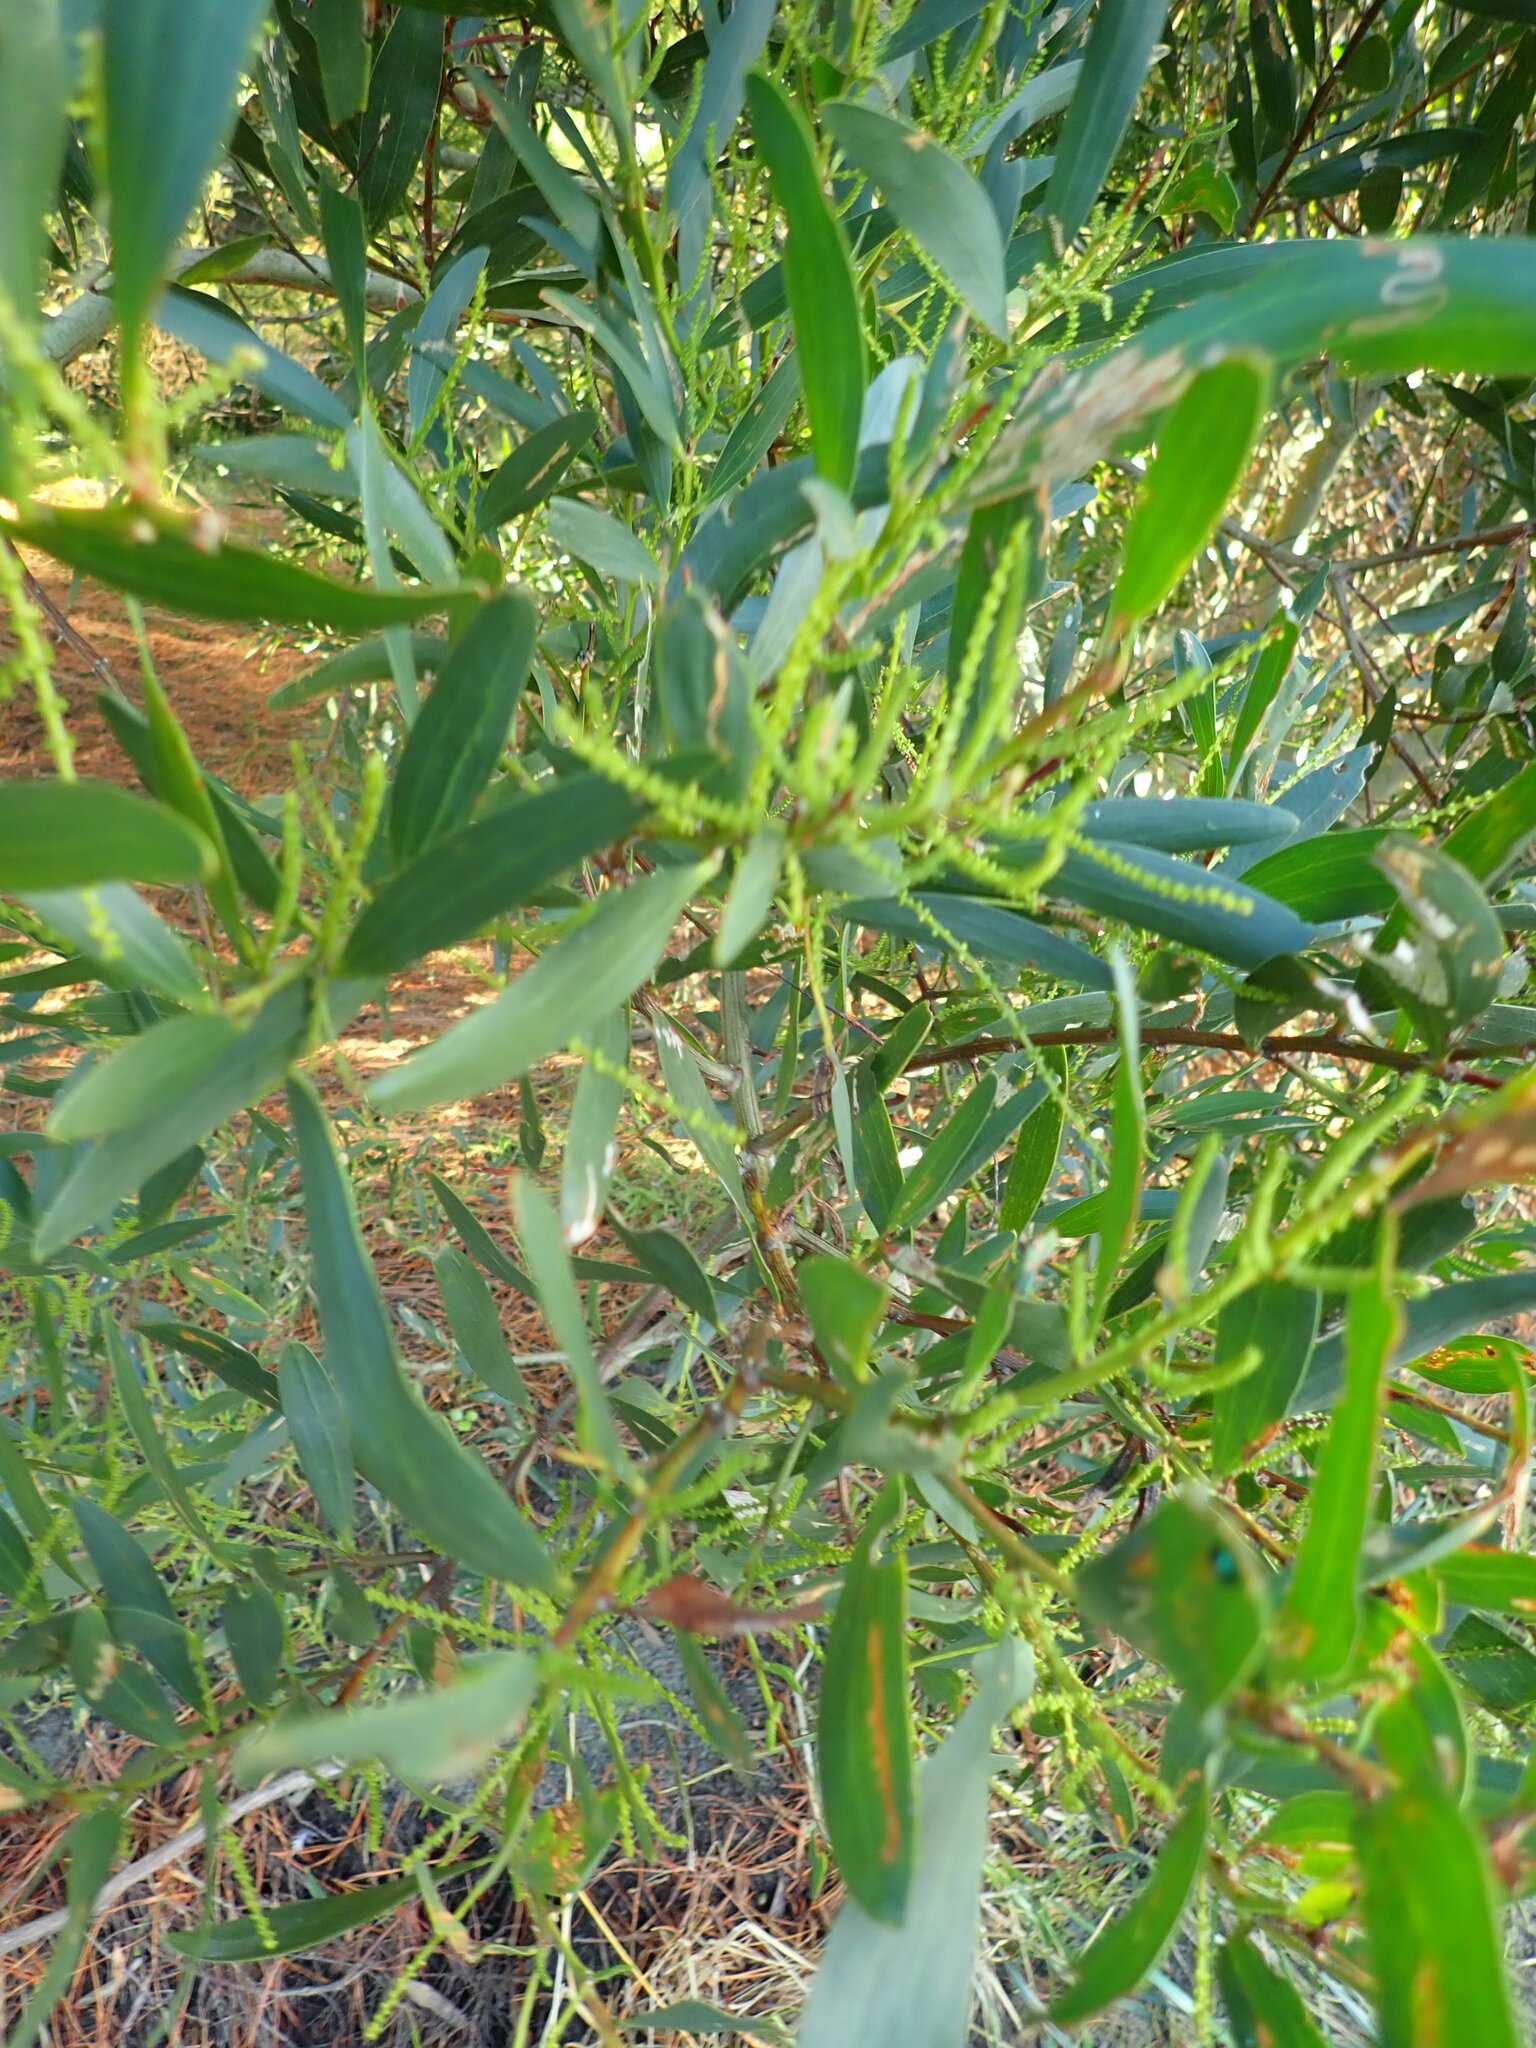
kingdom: Plantae
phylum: Tracheophyta
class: Magnoliopsida
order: Fabales
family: Fabaceae
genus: Acacia
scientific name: Acacia longifolia
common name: Sydney golden wattle
